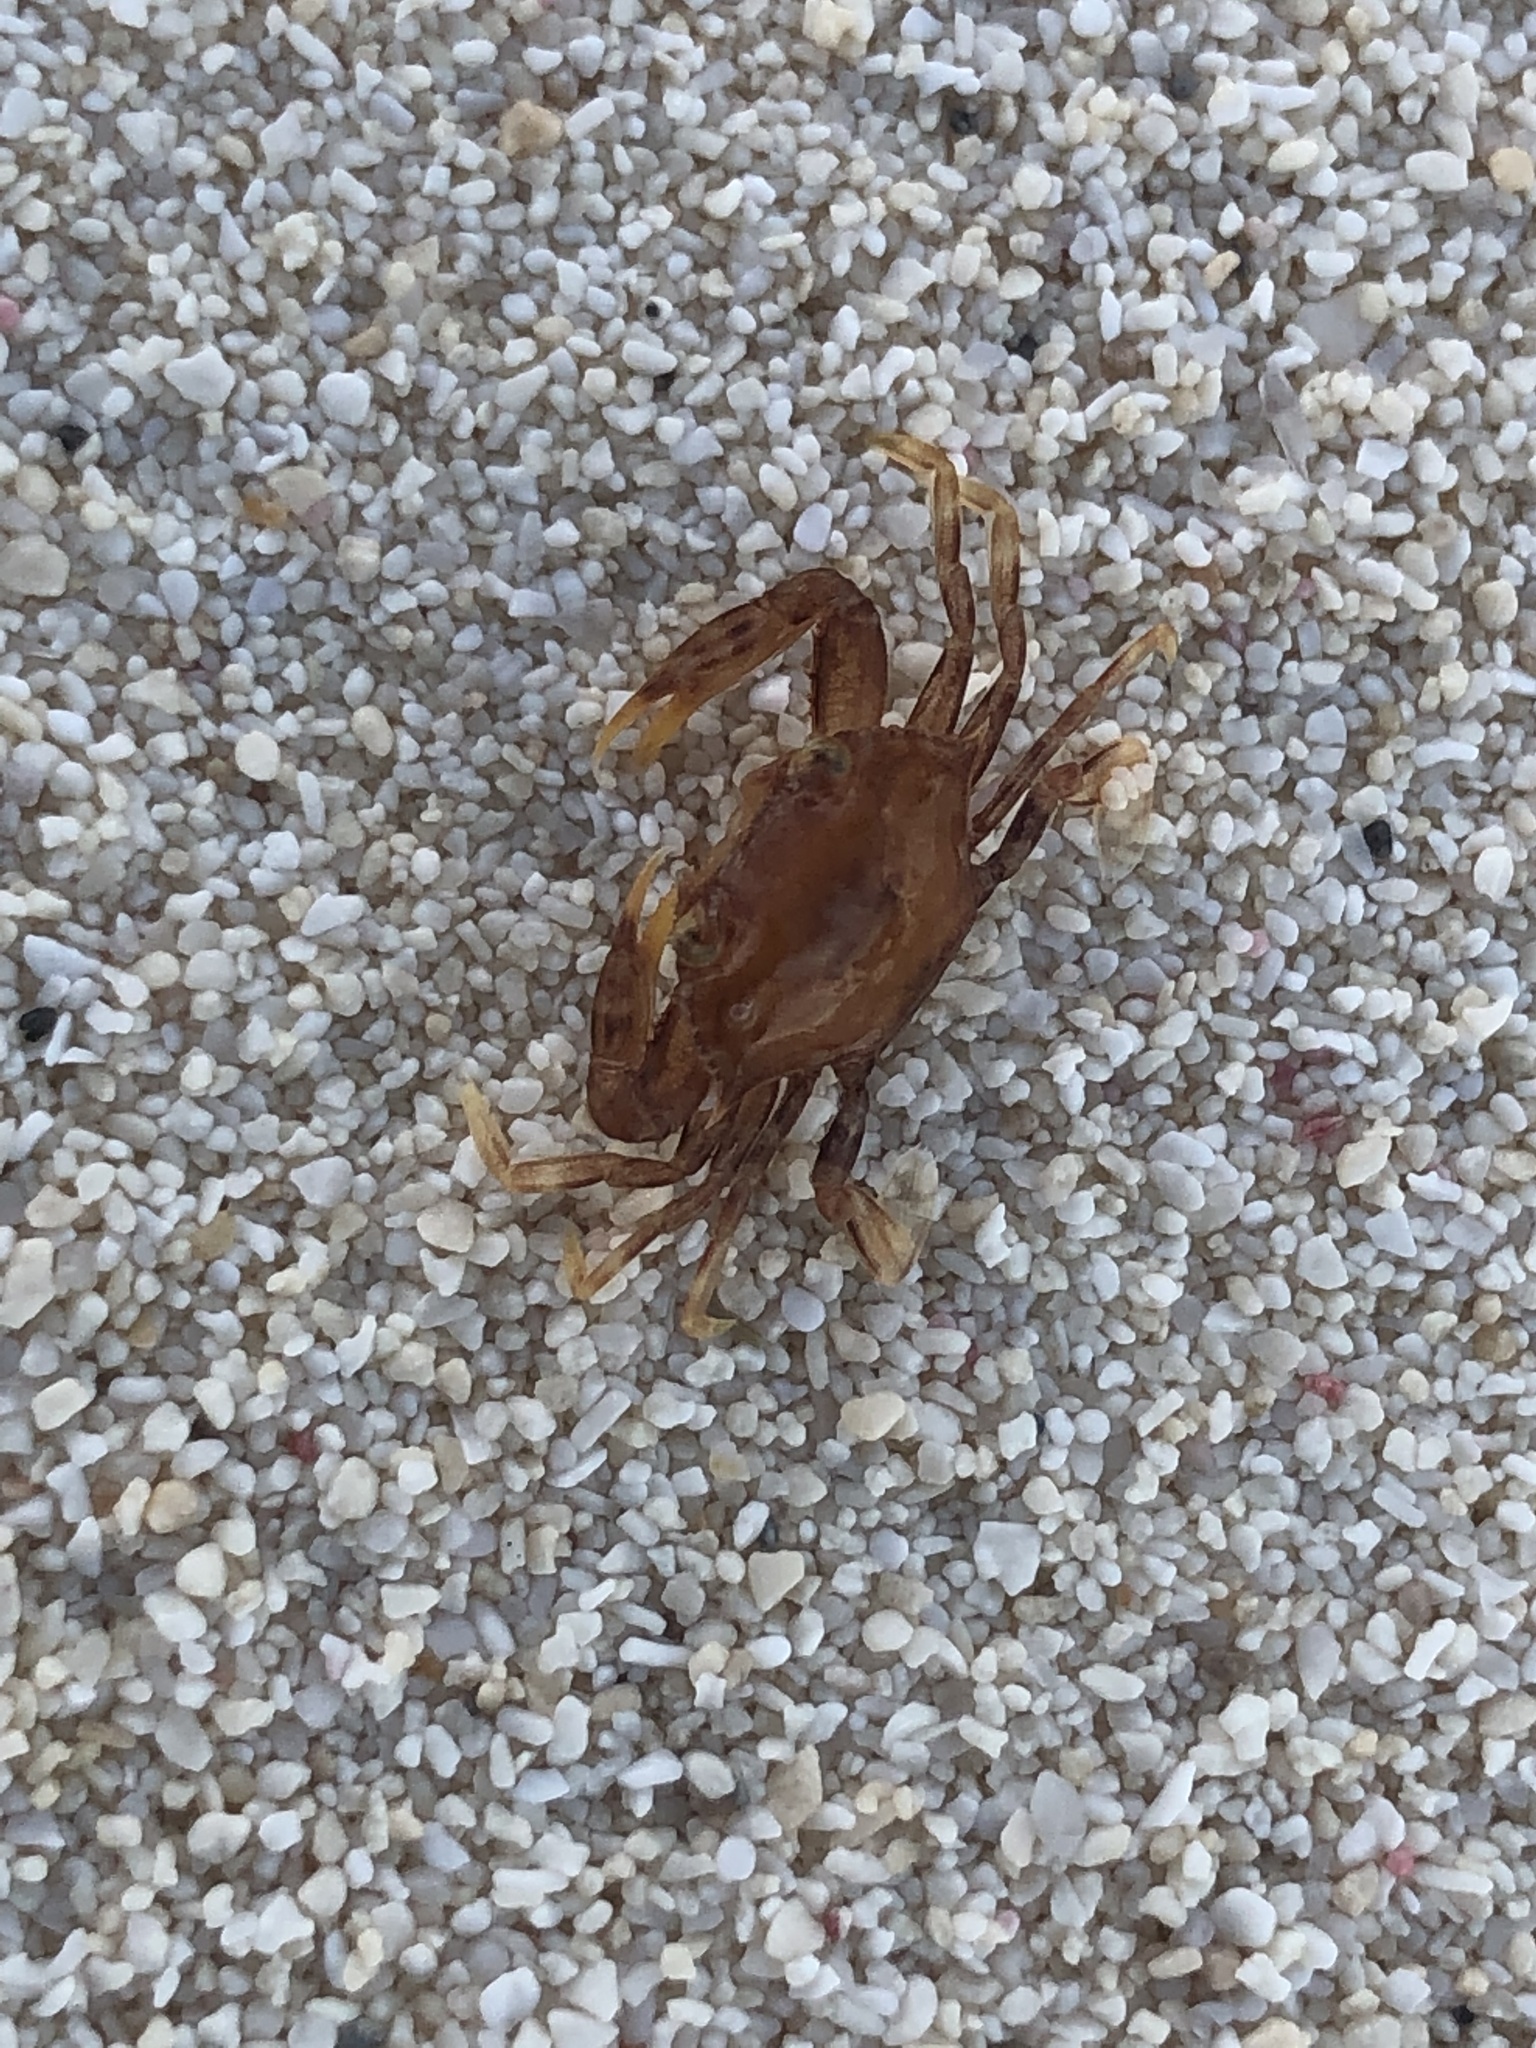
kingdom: Animalia
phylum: Arthropoda
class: Malacostraca
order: Decapoda
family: Portunidae
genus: Portunus
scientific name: Portunus sayi
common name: Sargassum crab
